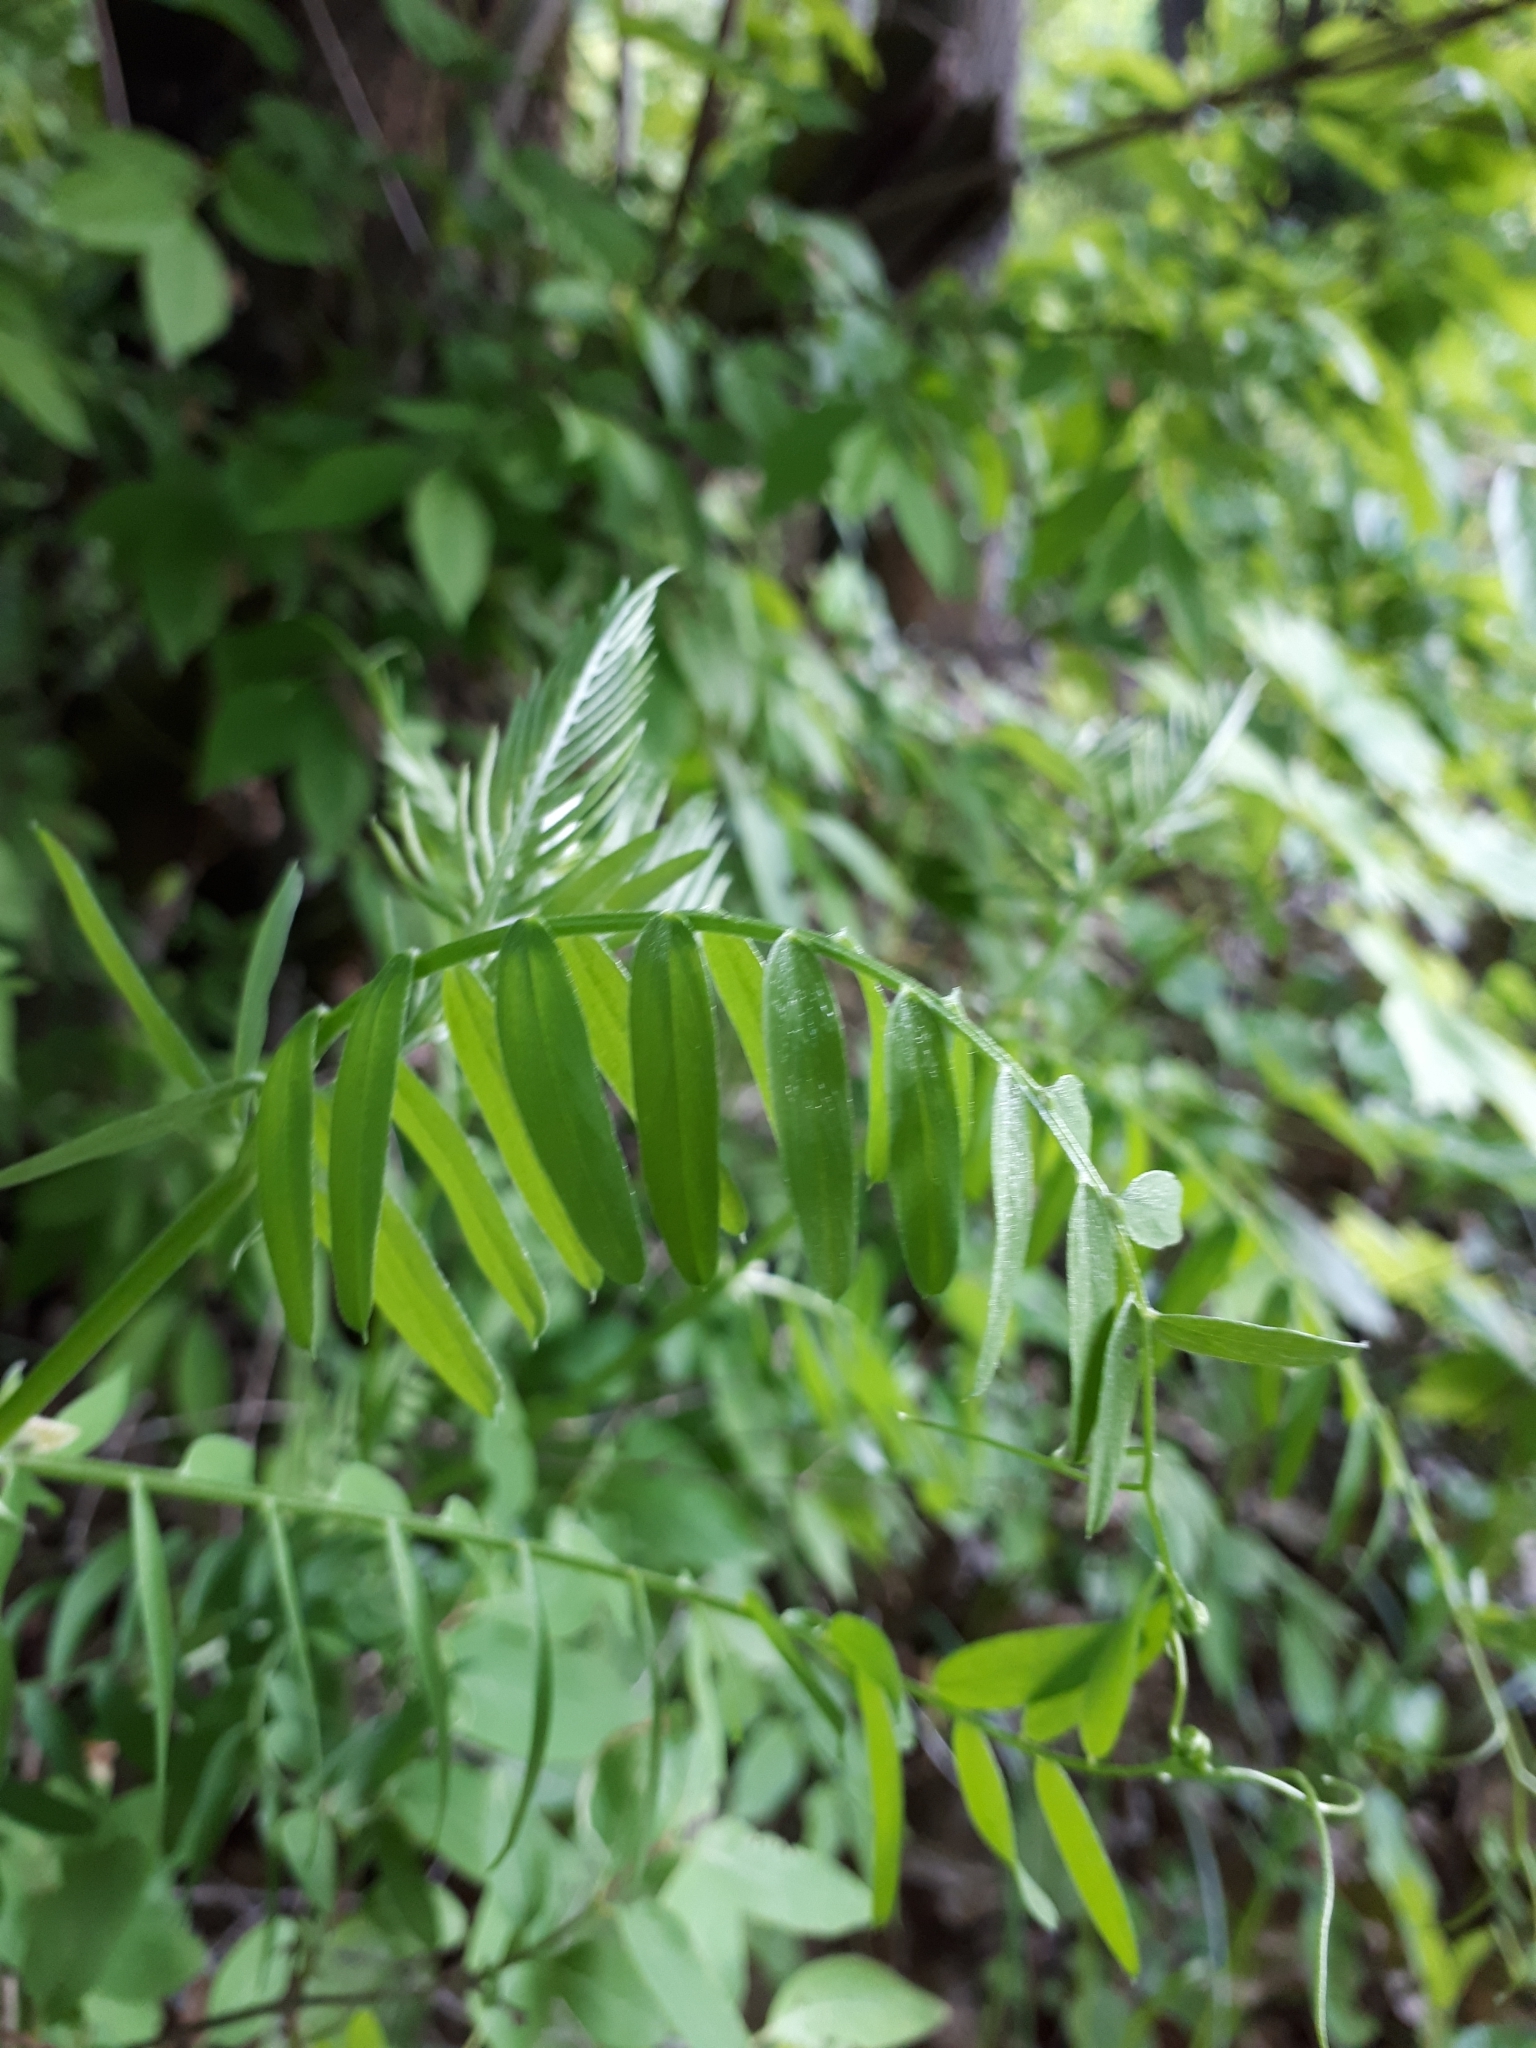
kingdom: Plantae
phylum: Tracheophyta
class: Magnoliopsida
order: Fabales
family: Fabaceae
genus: Vicia
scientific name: Vicia cracca
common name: Bird vetch
